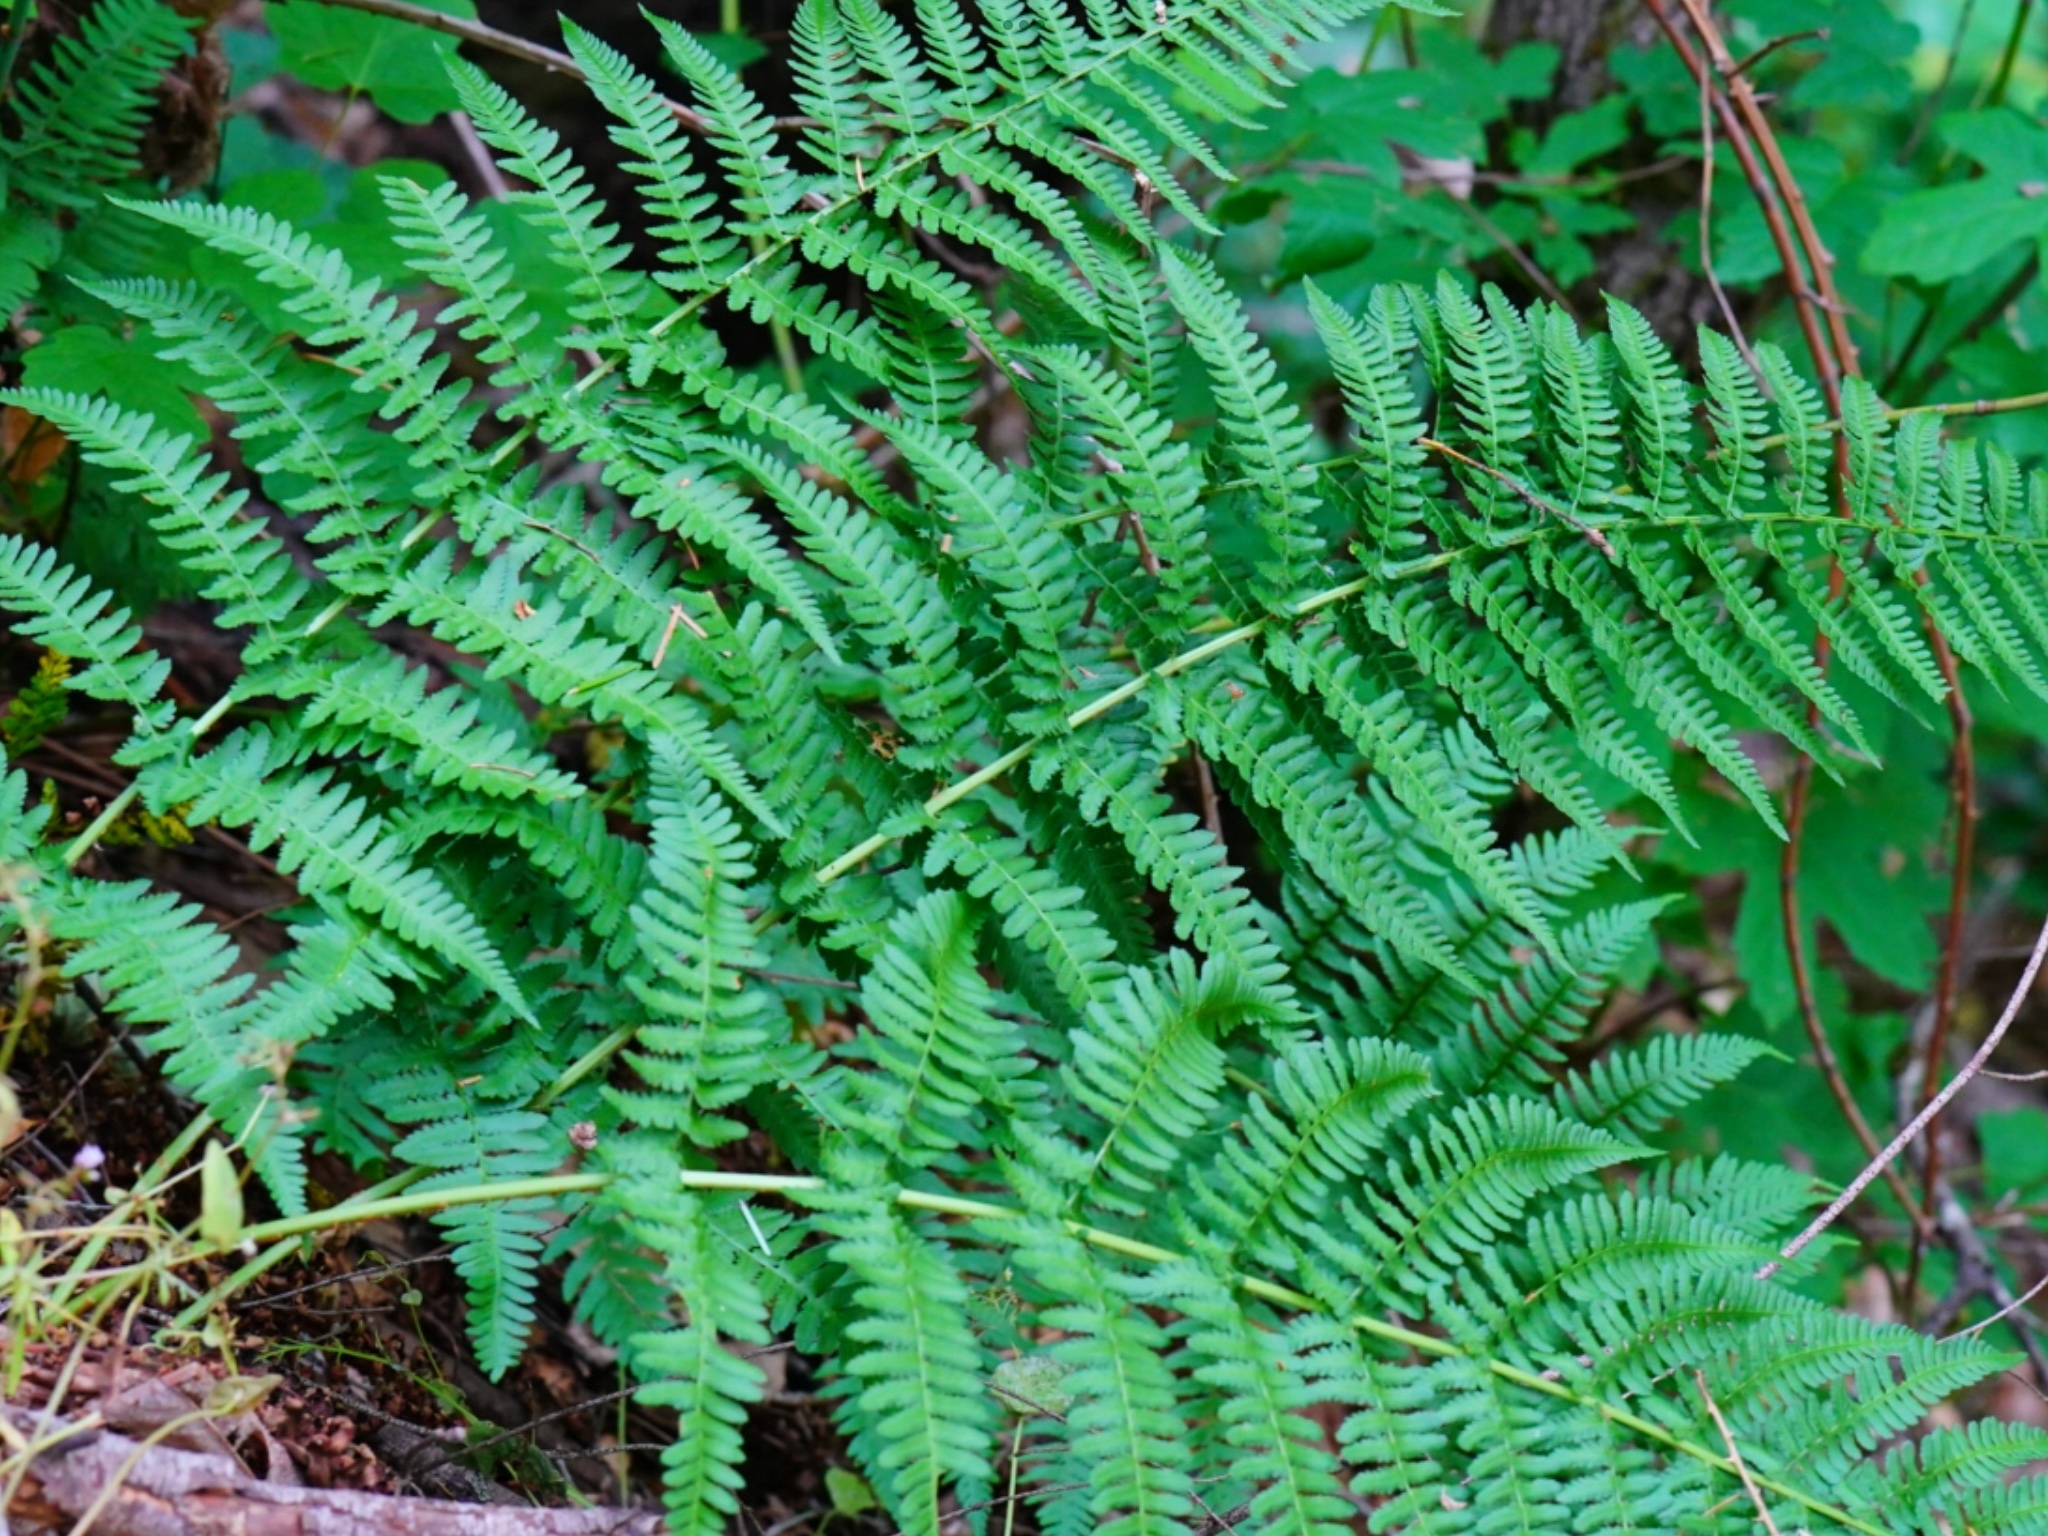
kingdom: Plantae
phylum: Tracheophyta
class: Polypodiopsida
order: Polypodiales
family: Dryopteridaceae
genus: Dryopteris
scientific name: Dryopteris arguta
